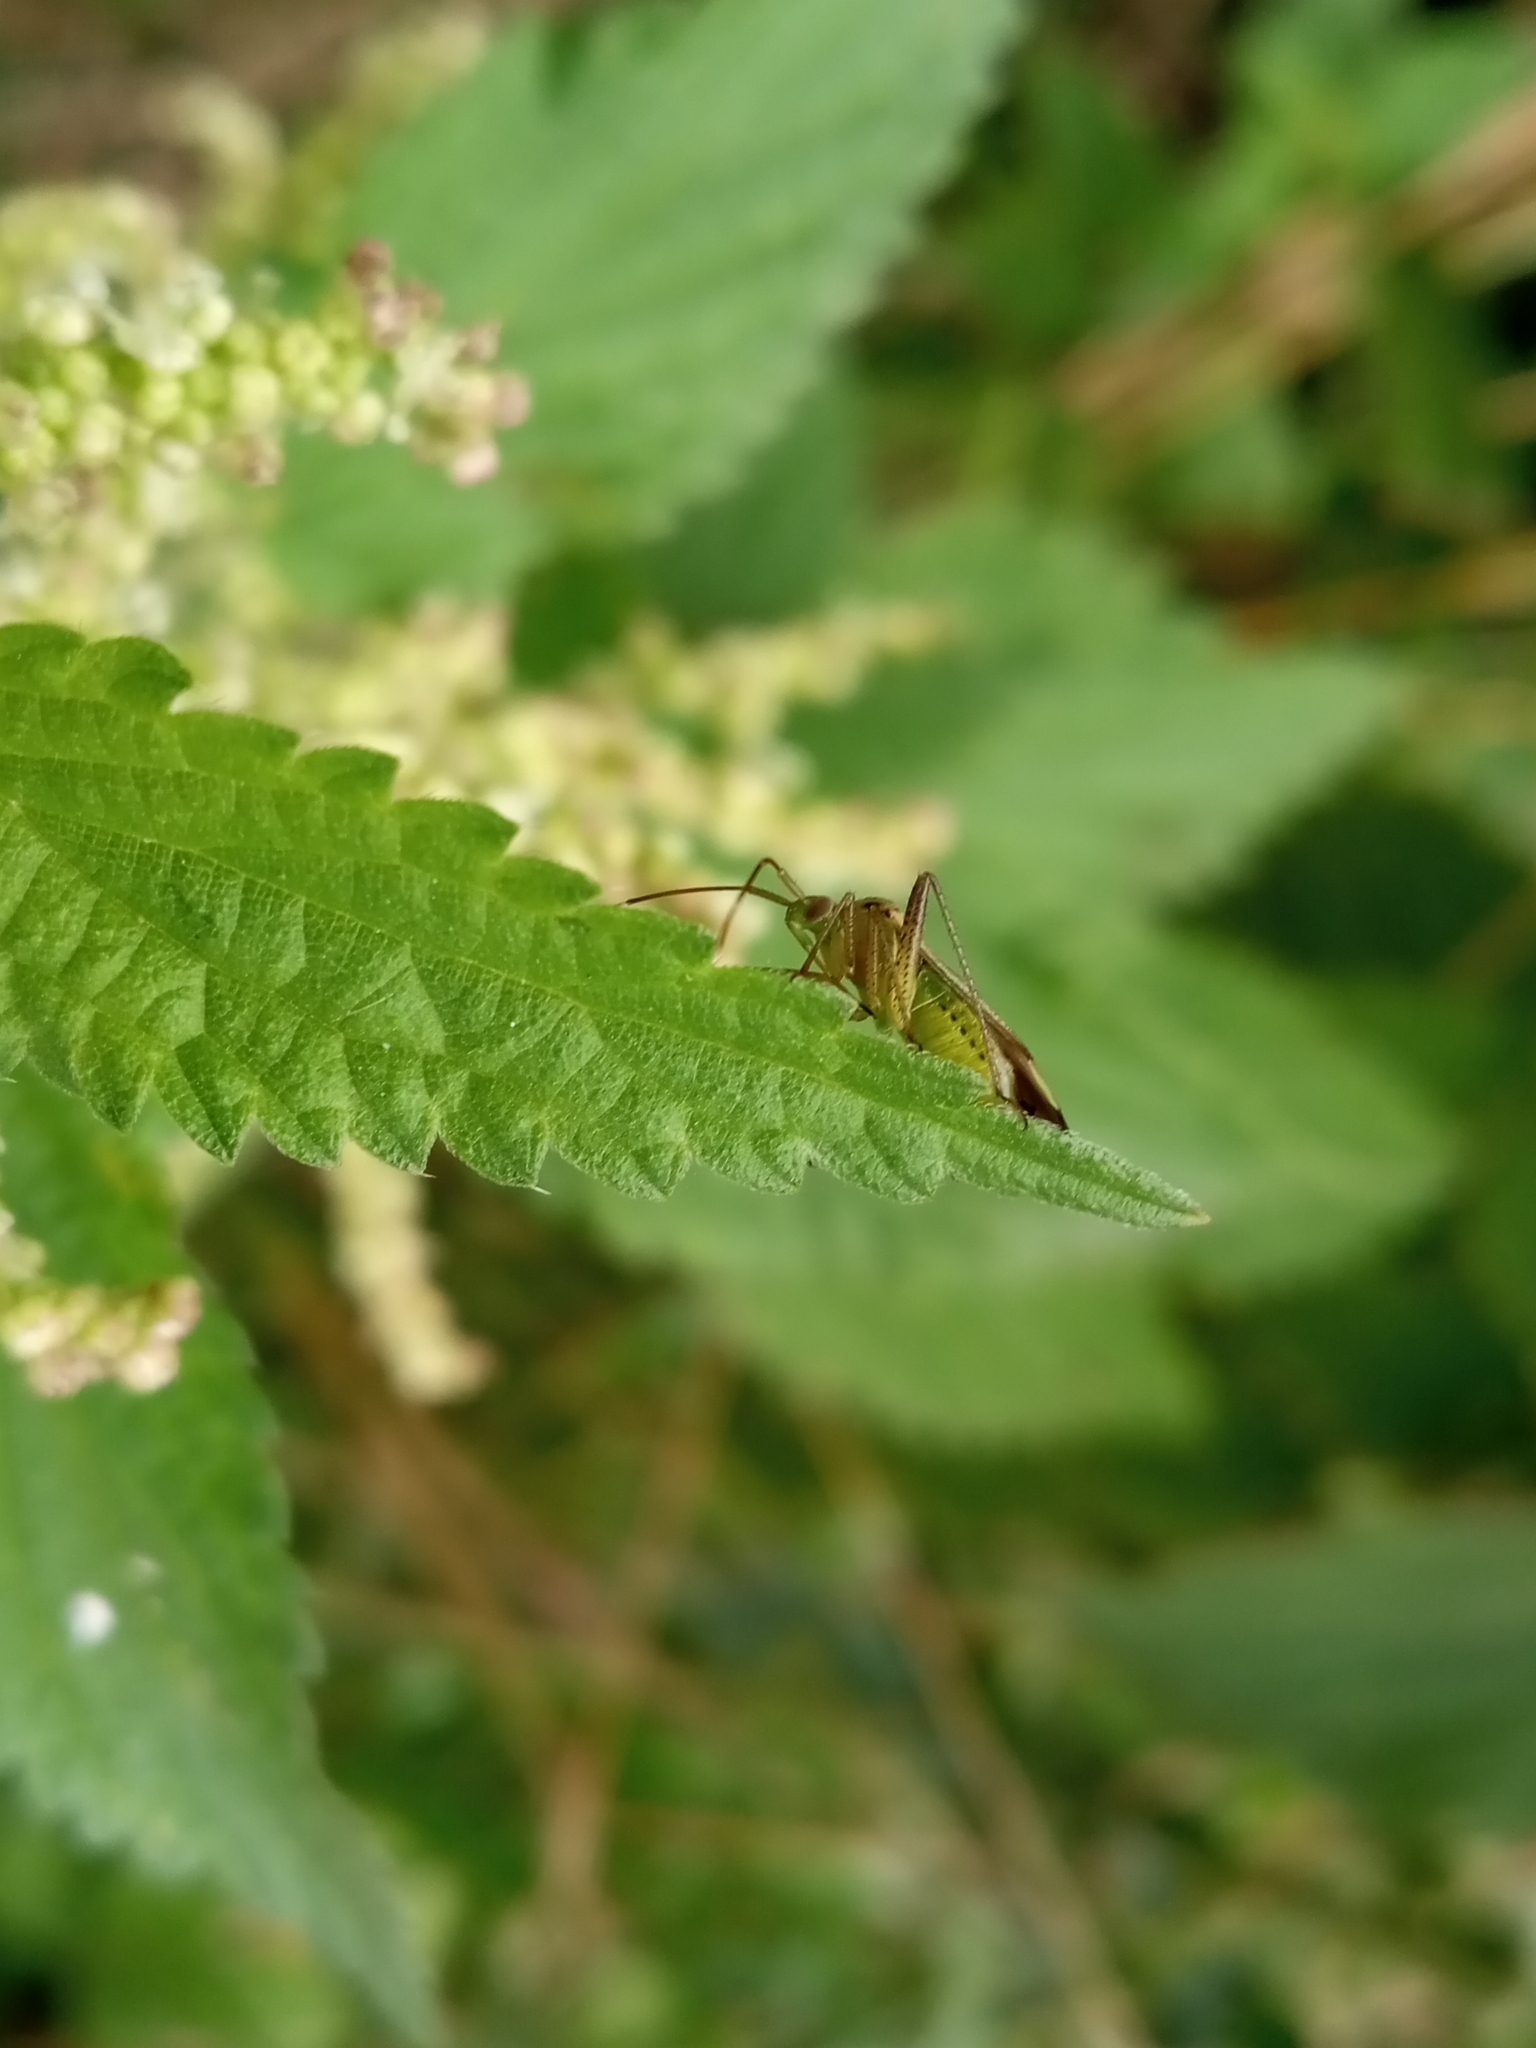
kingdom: Animalia
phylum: Arthropoda
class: Insecta
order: Hemiptera
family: Miridae
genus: Adelphocoris
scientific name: Adelphocoris quadripunctatus
